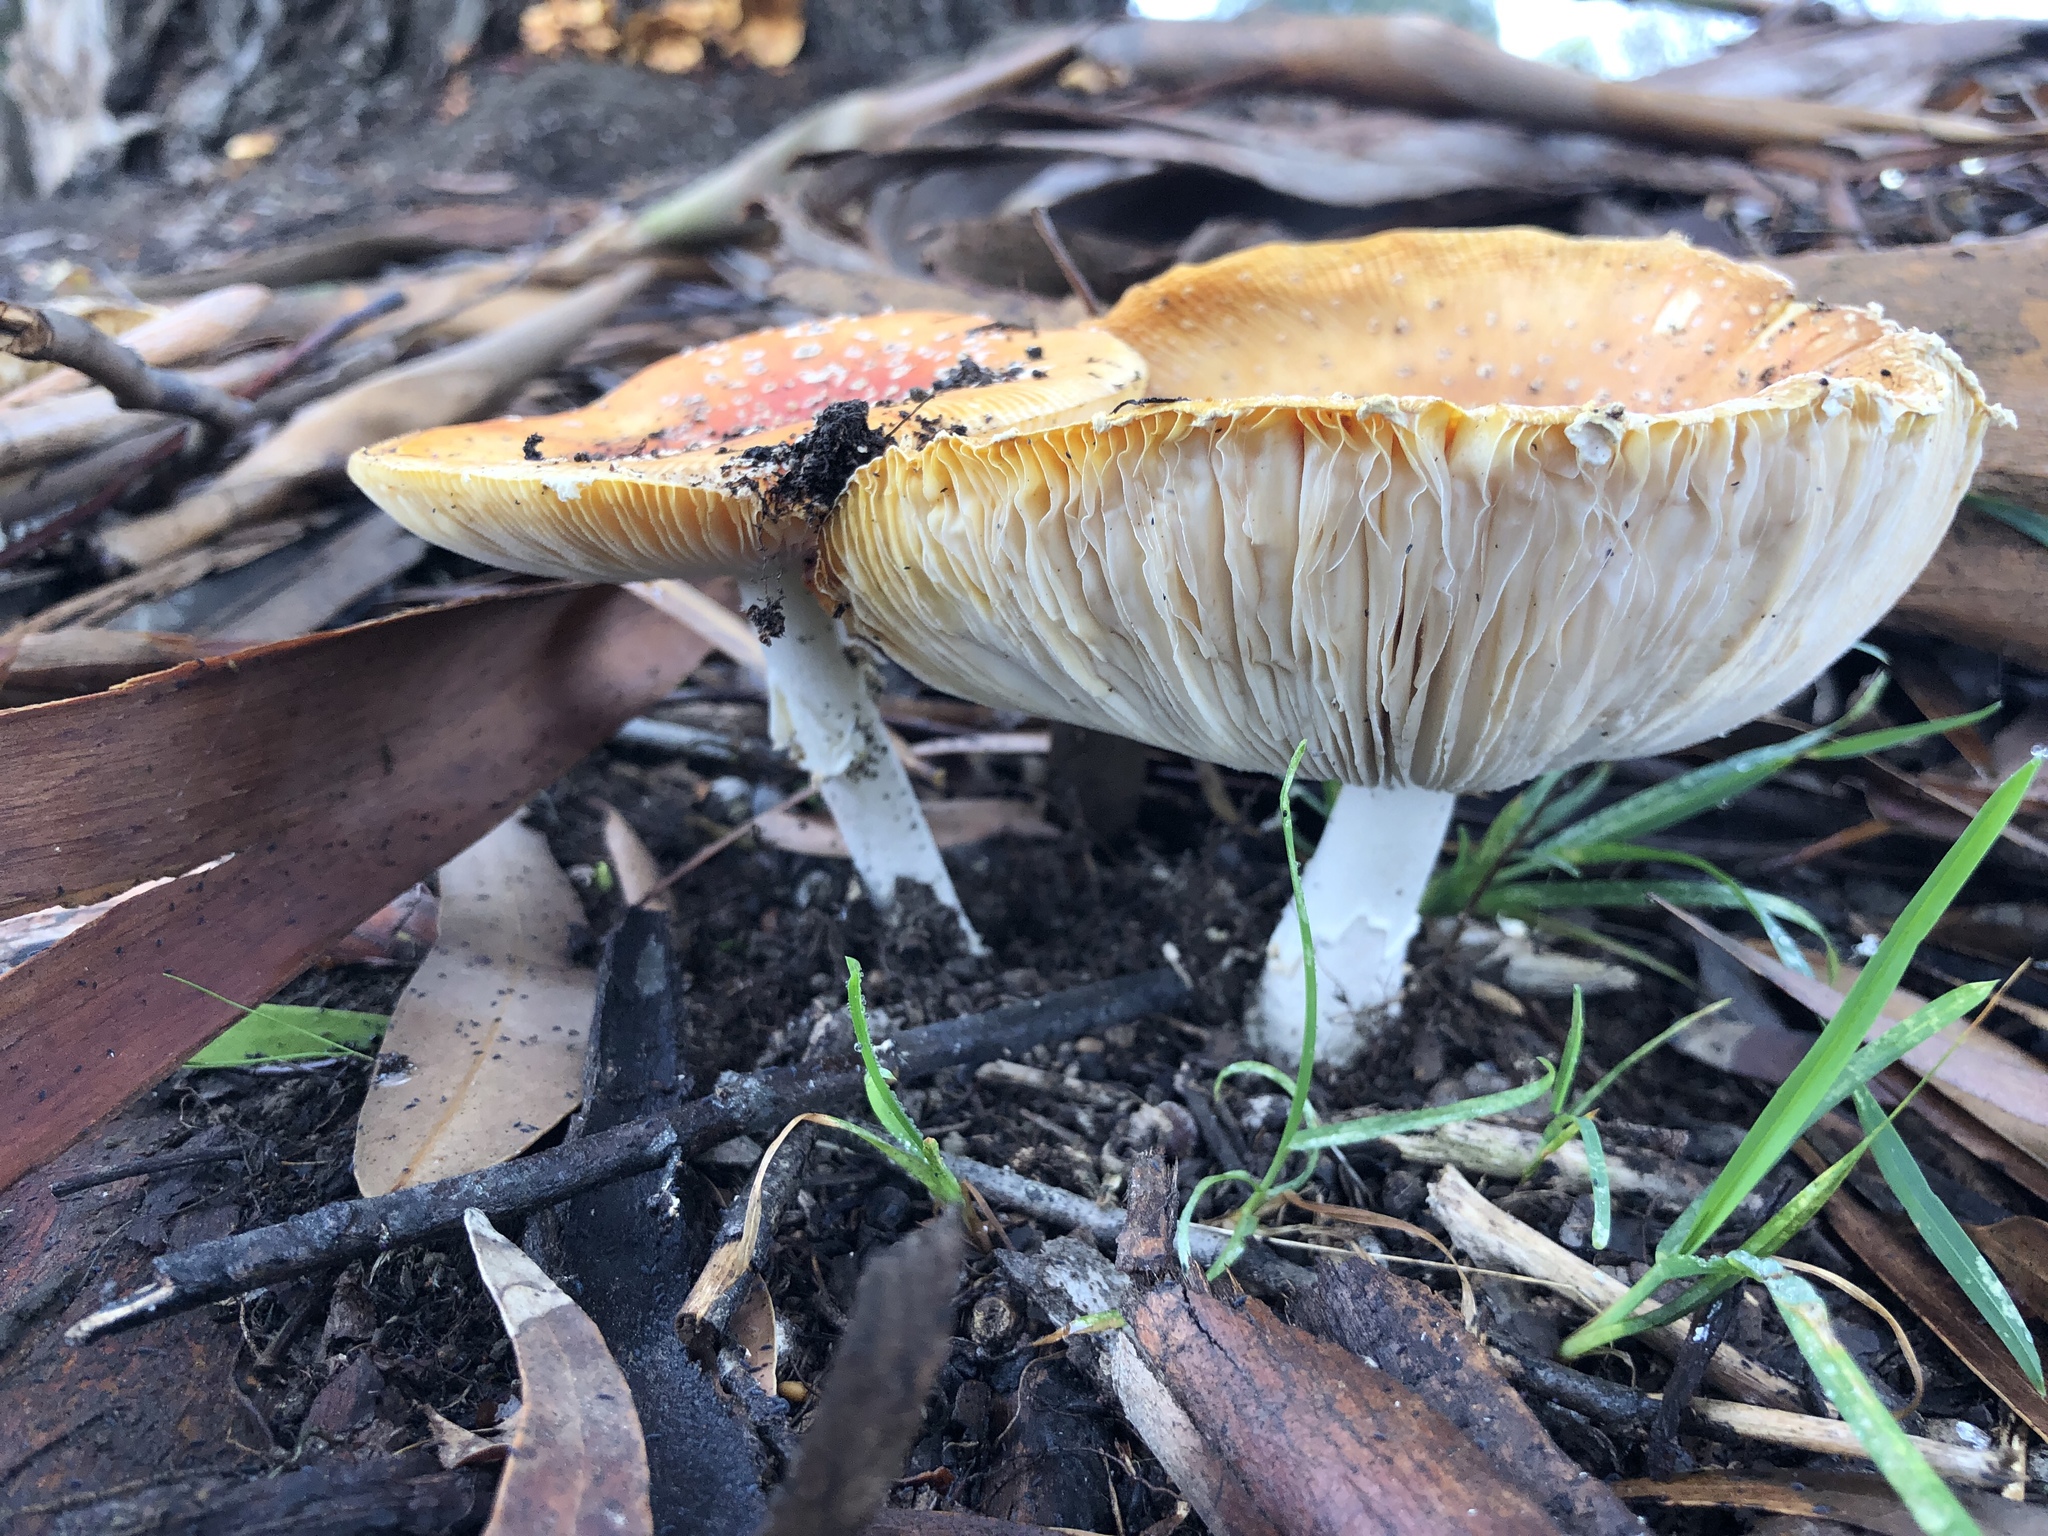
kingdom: Fungi
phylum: Basidiomycota
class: Agaricomycetes
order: Agaricales
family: Amanitaceae
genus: Amanita
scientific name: Amanita muscaria
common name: Fly agaric
